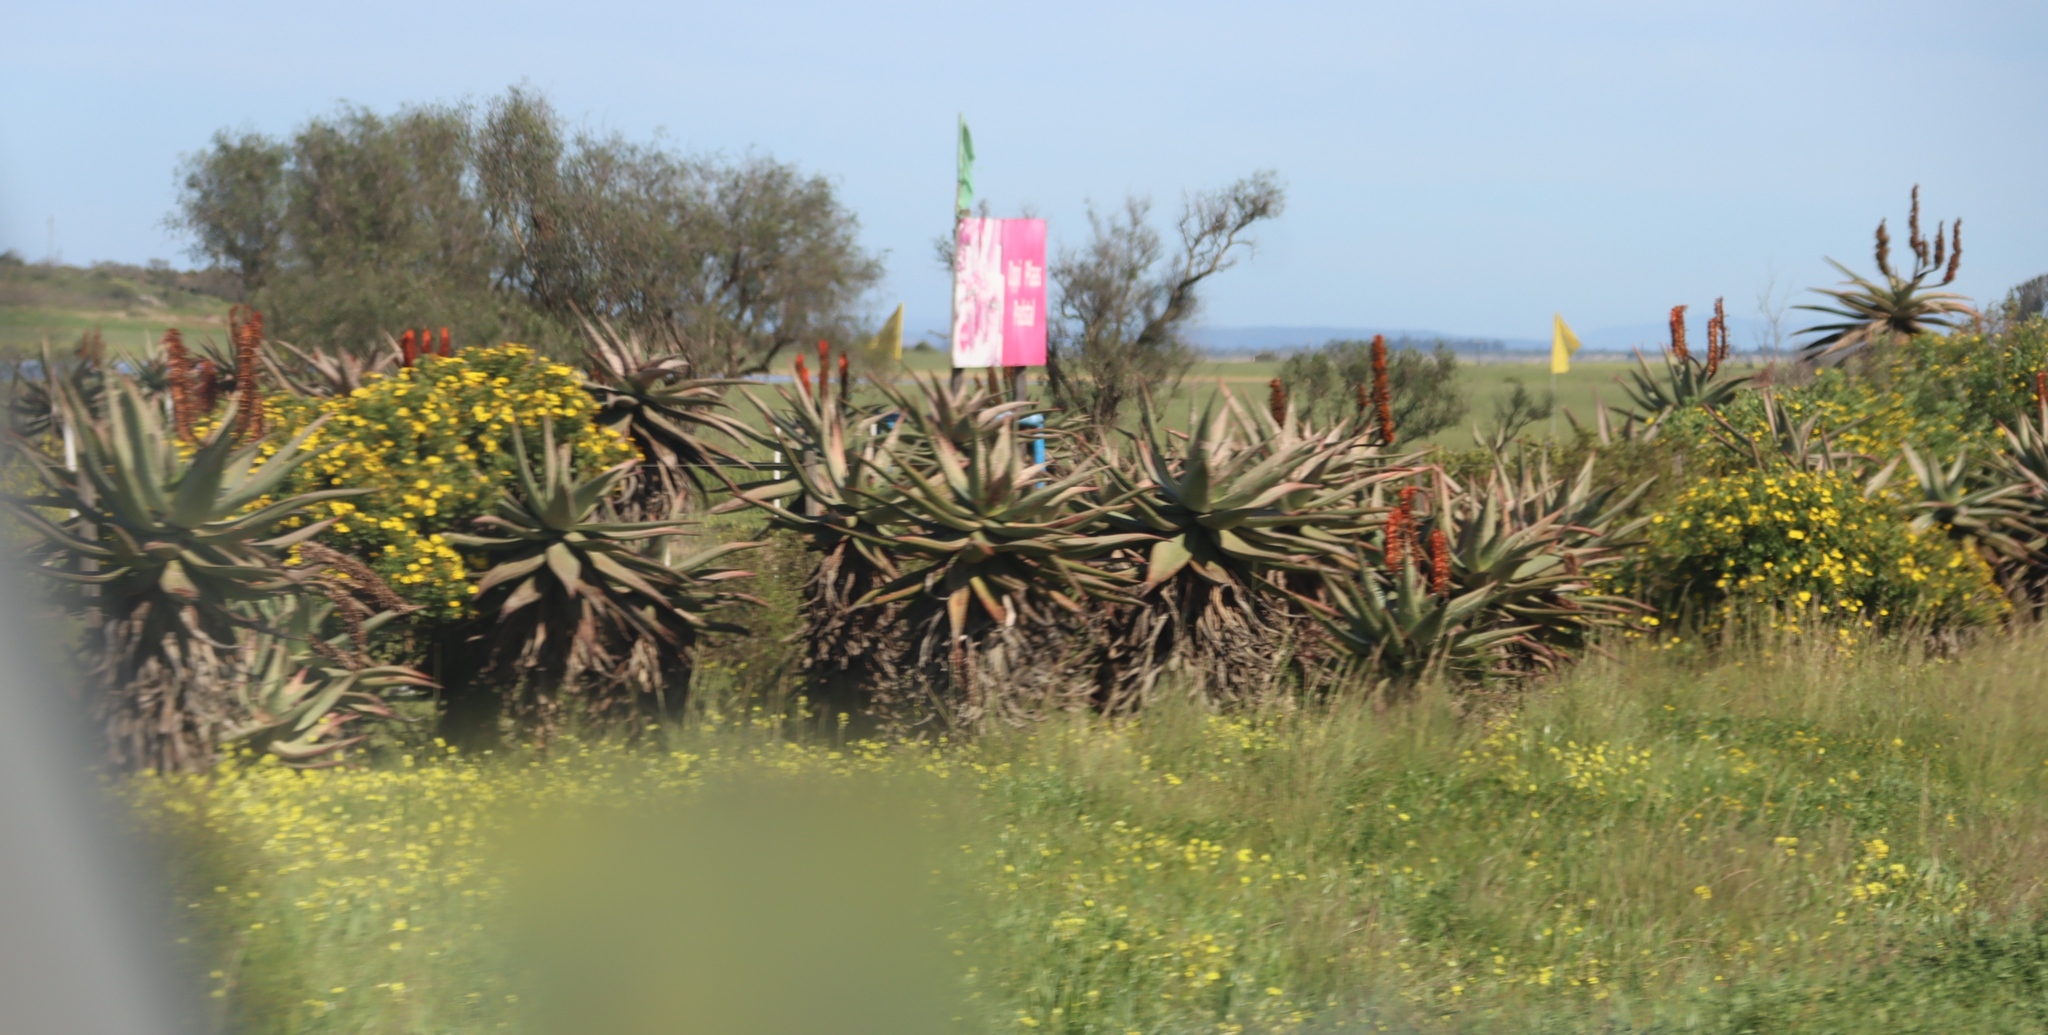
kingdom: Plantae
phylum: Tracheophyta
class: Liliopsida
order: Asparagales
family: Asphodelaceae
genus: Aloe
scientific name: Aloe ferox
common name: Bitter aloe
